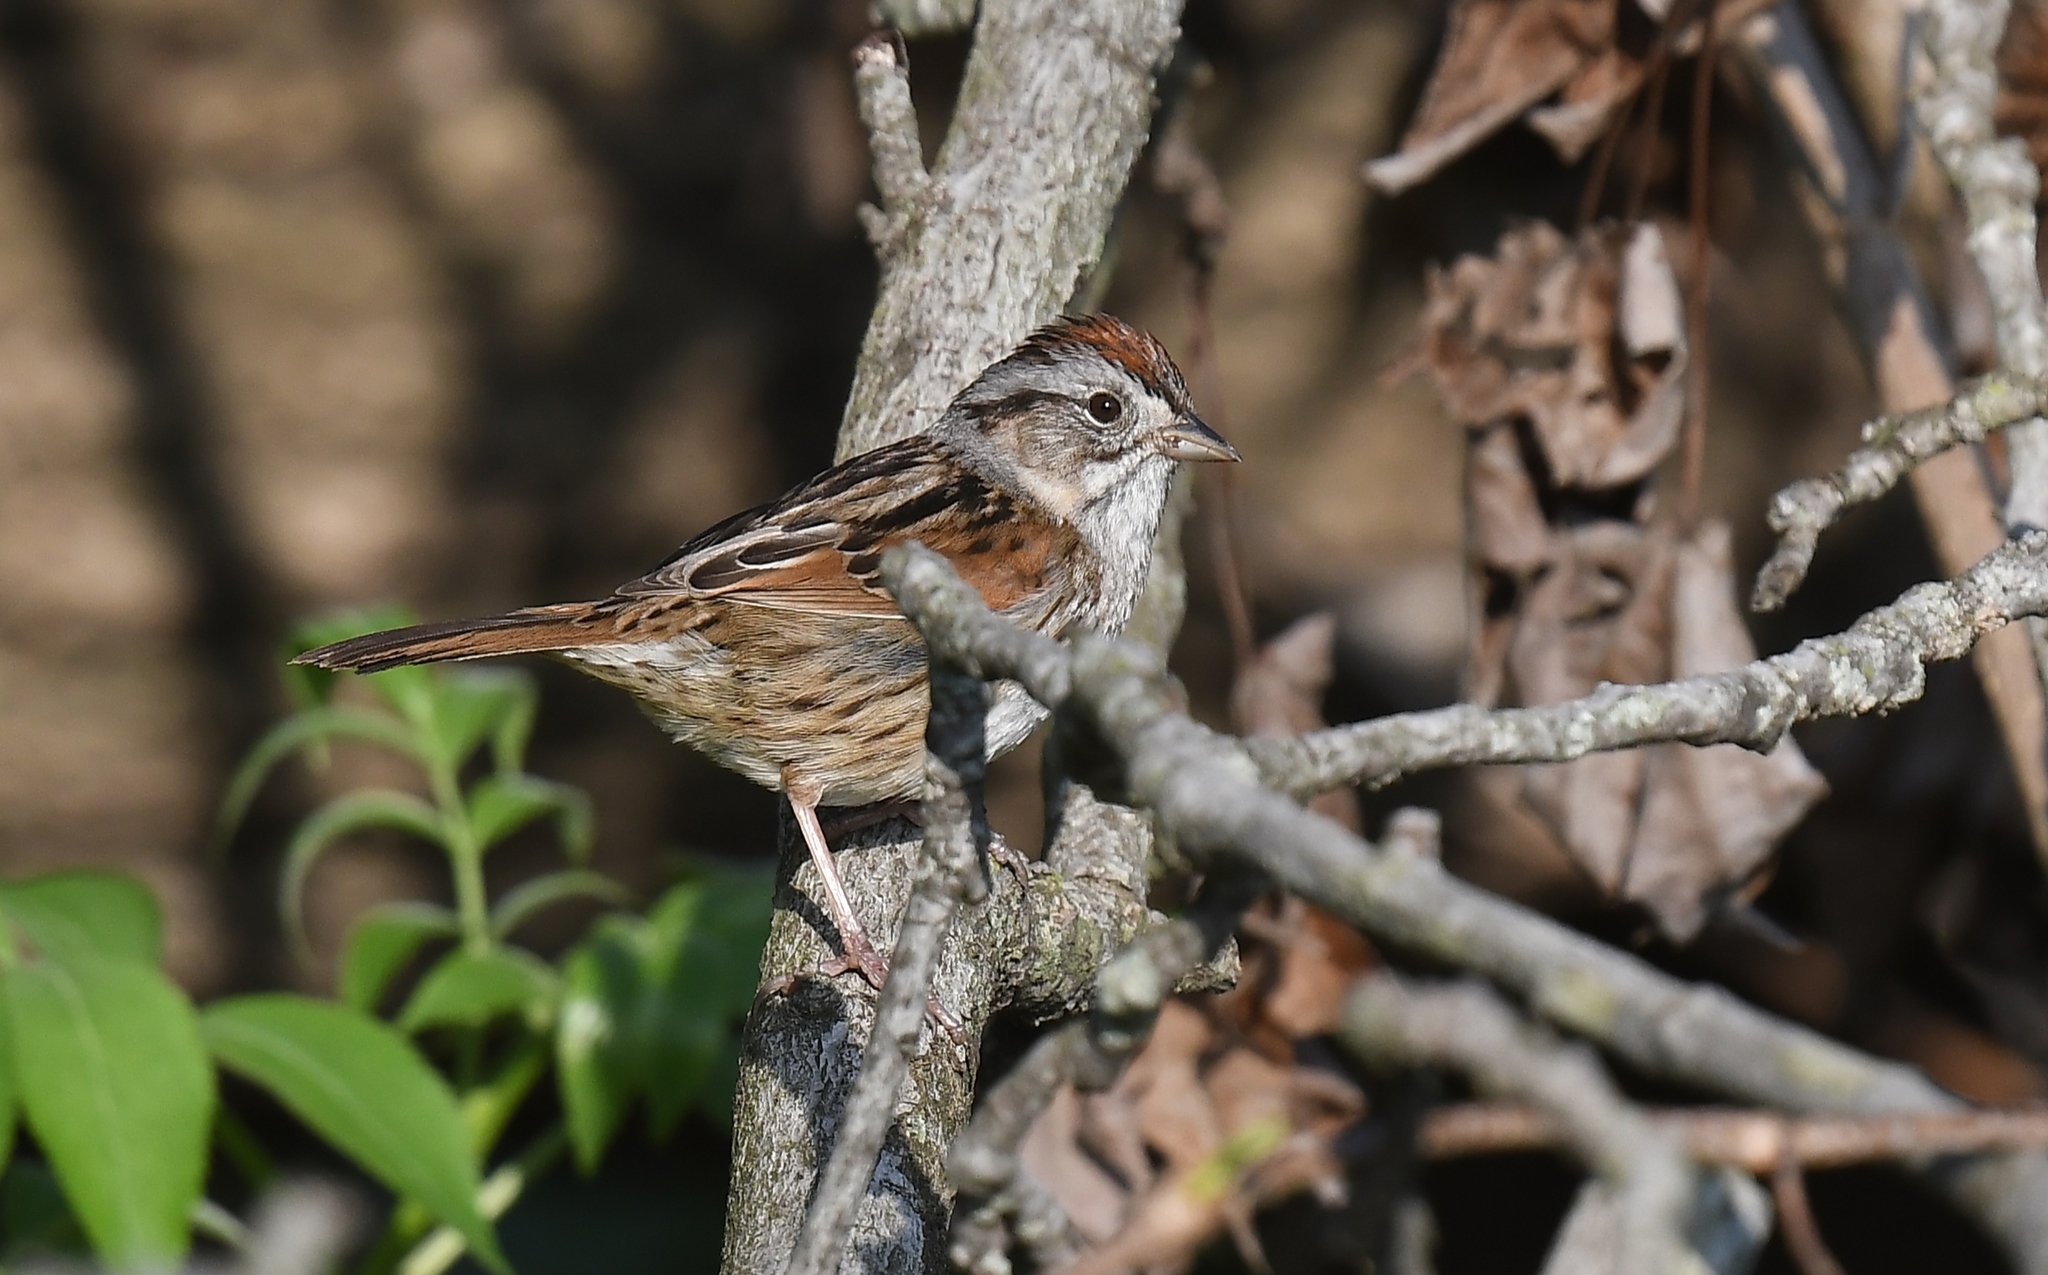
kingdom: Animalia
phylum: Chordata
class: Aves
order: Passeriformes
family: Passerellidae
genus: Melospiza
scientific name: Melospiza georgiana
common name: Swamp sparrow
